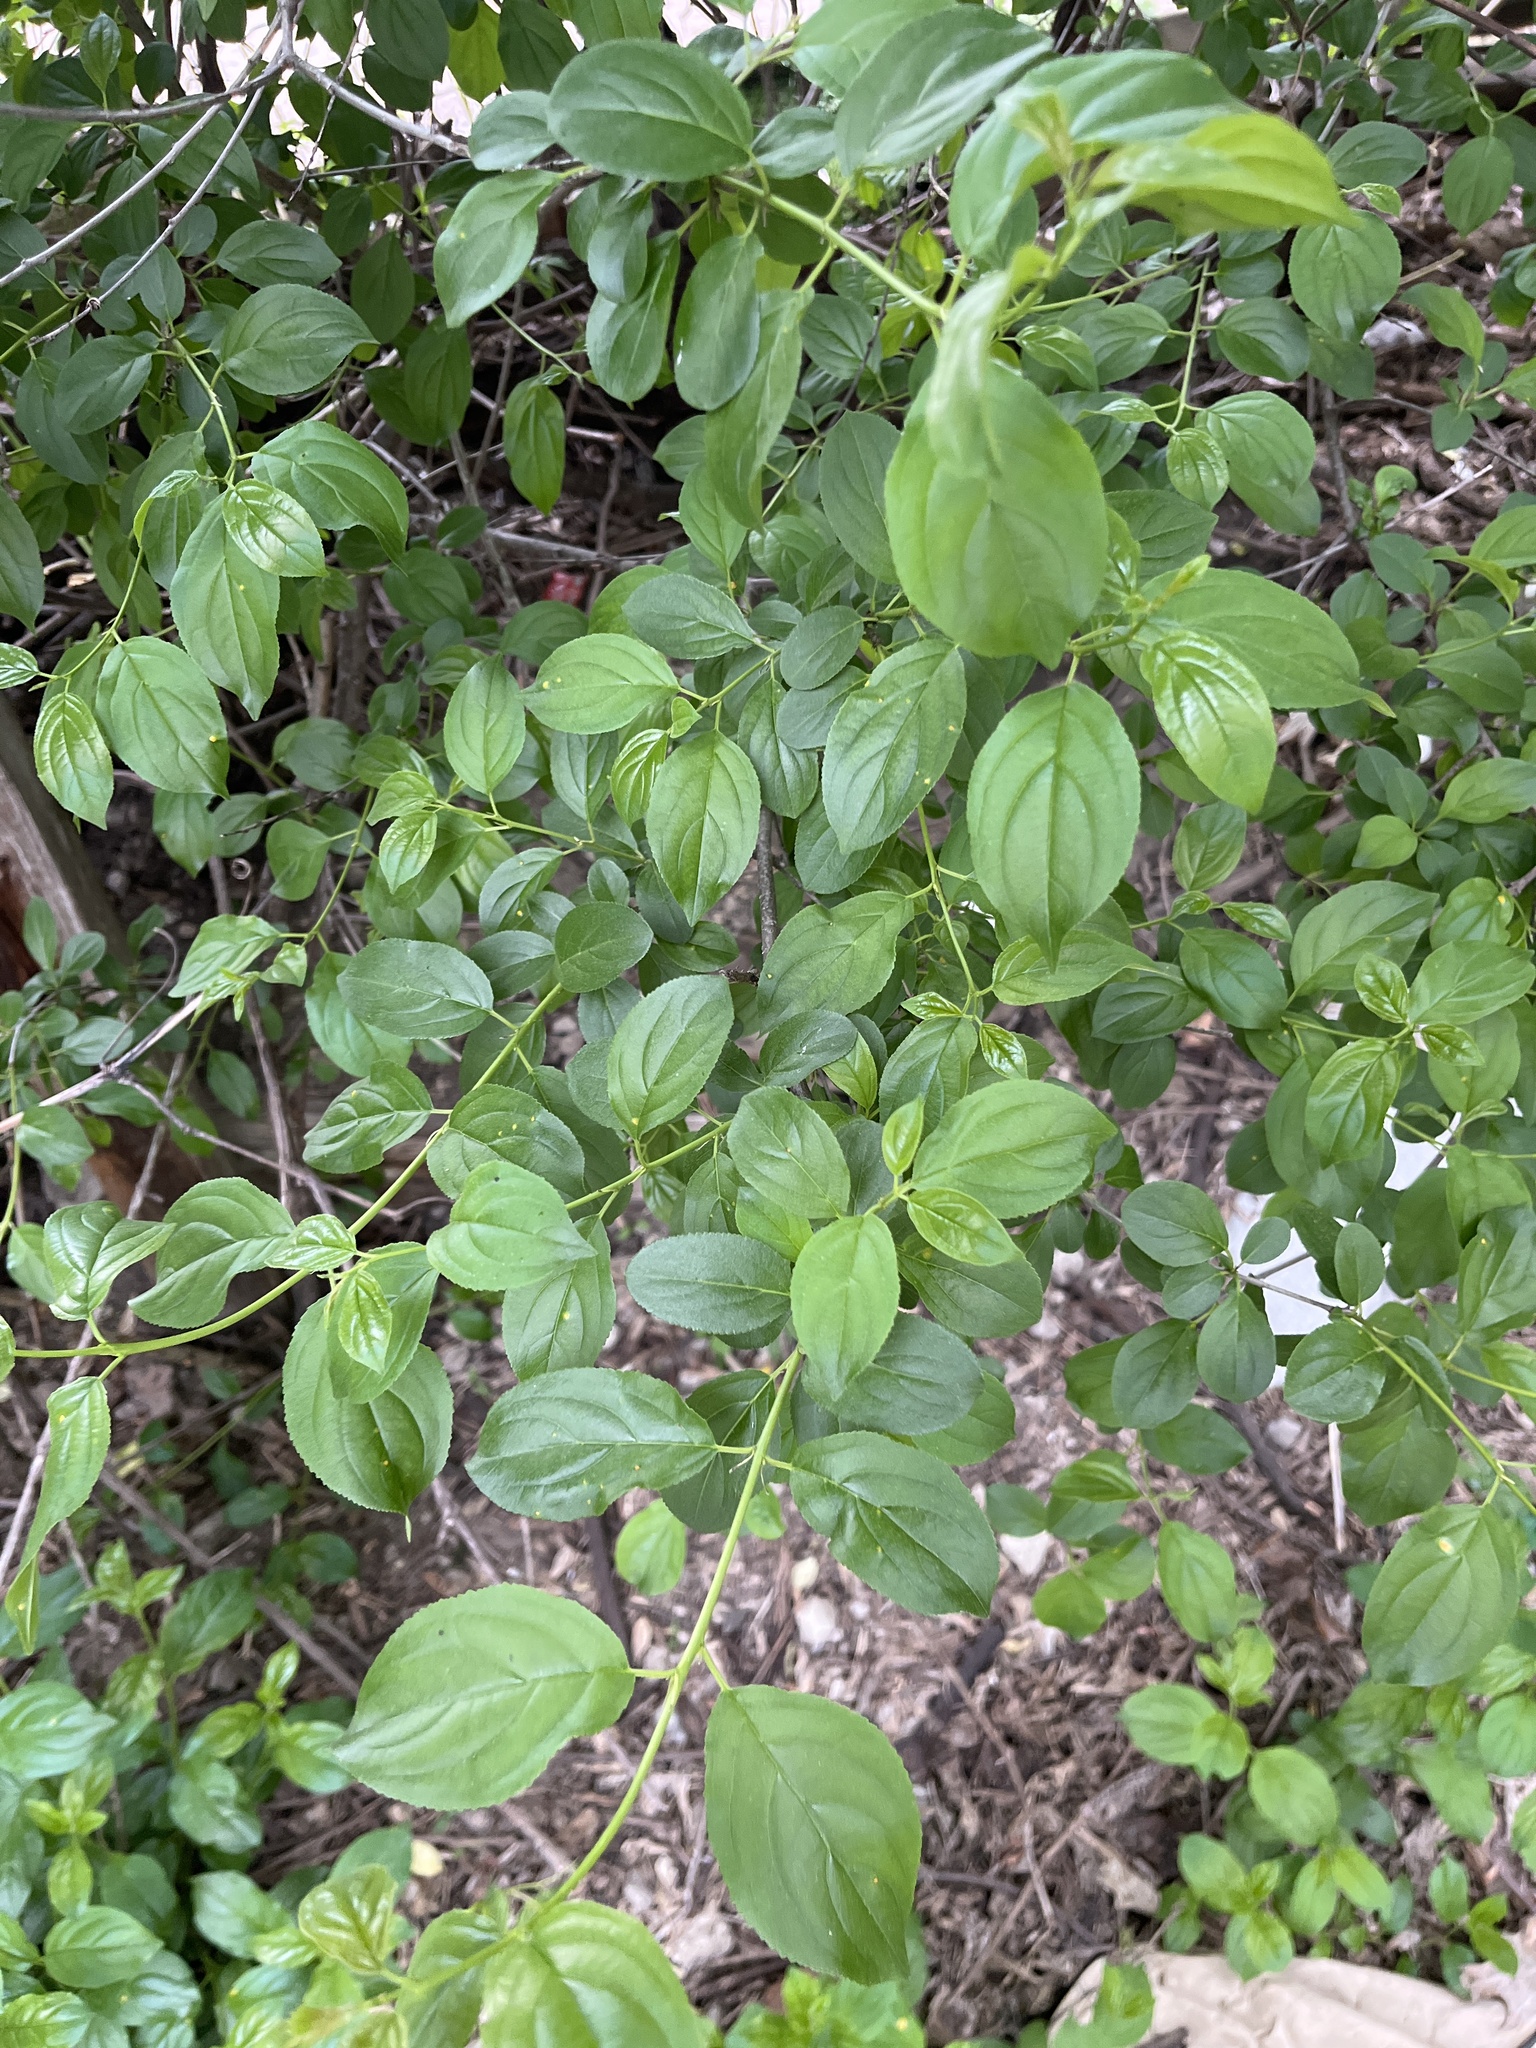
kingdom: Plantae
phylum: Tracheophyta
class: Magnoliopsida
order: Rosales
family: Rhamnaceae
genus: Rhamnus
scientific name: Rhamnus cathartica
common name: Common buckthorn
